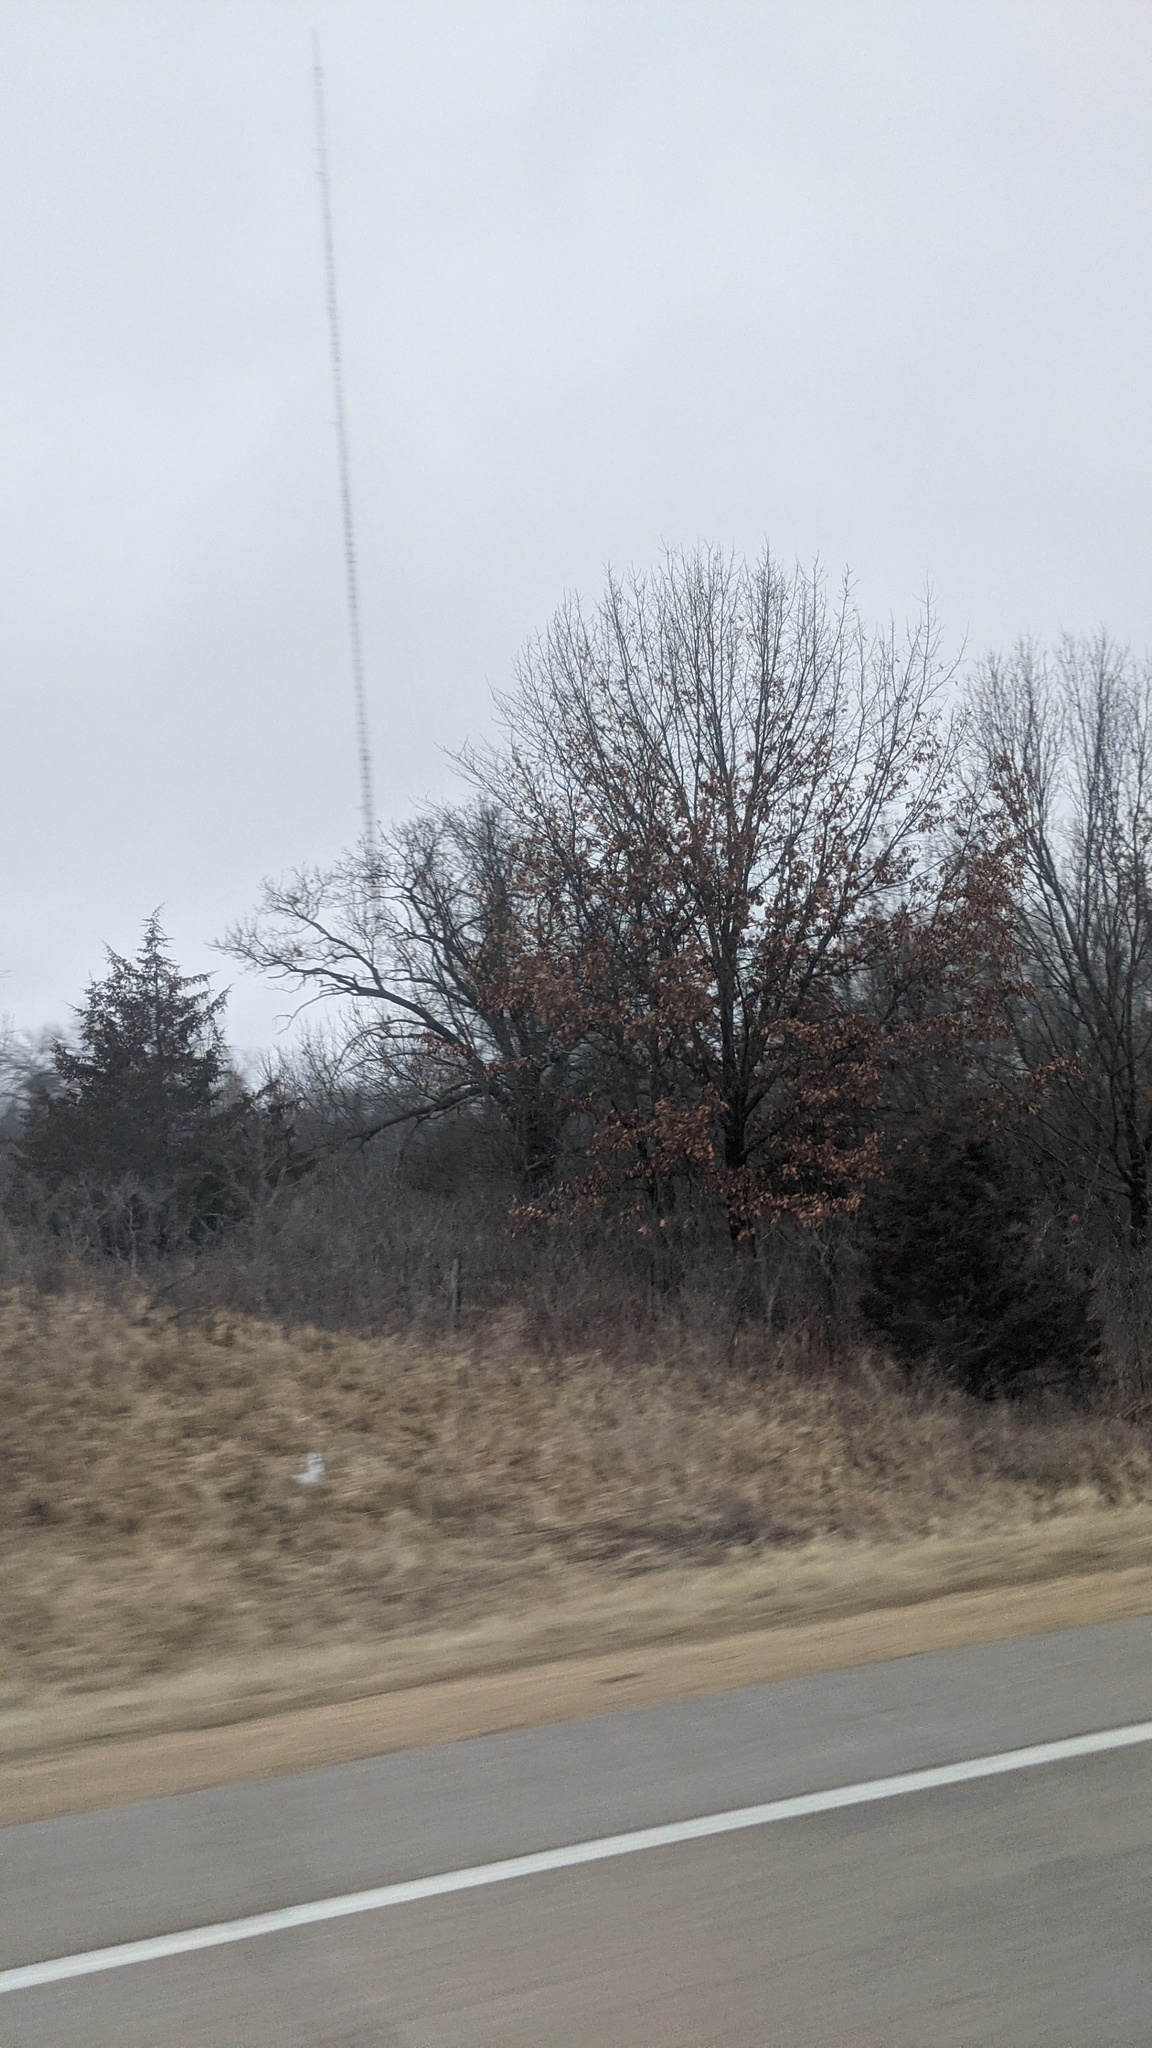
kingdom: Plantae
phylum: Tracheophyta
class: Pinopsida
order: Pinales
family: Cupressaceae
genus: Juniperus
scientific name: Juniperus virginiana
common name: Red juniper
